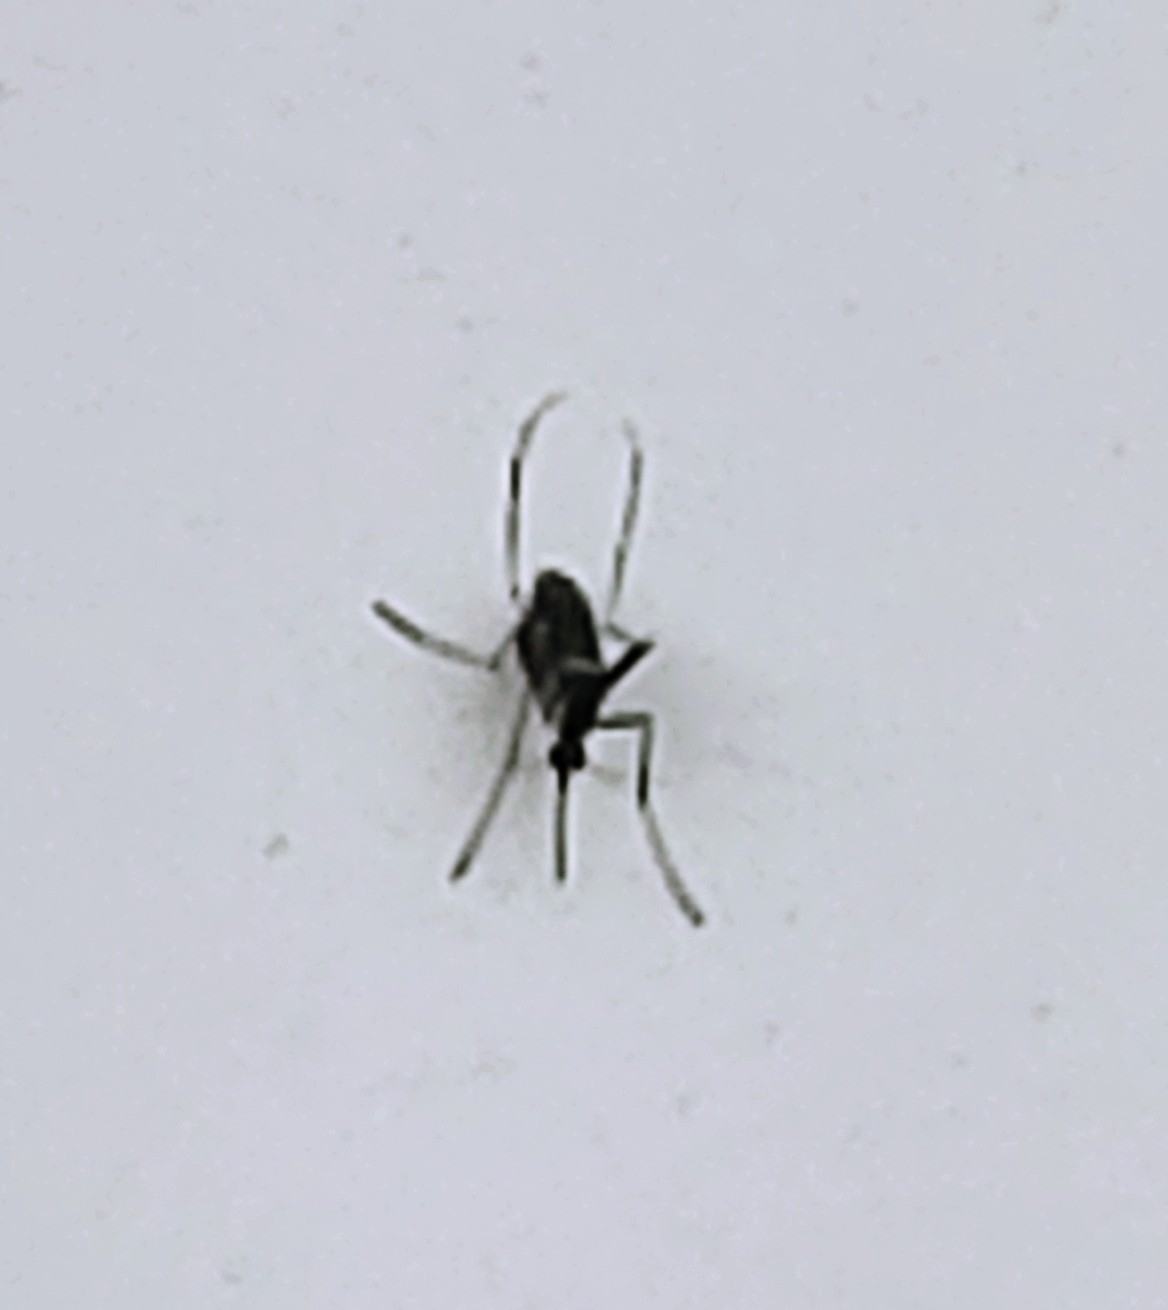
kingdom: Animalia
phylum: Arthropoda
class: Insecta
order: Diptera
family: Culicidae
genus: Aedes
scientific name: Aedes aegypti
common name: Yellow fever mosquito
